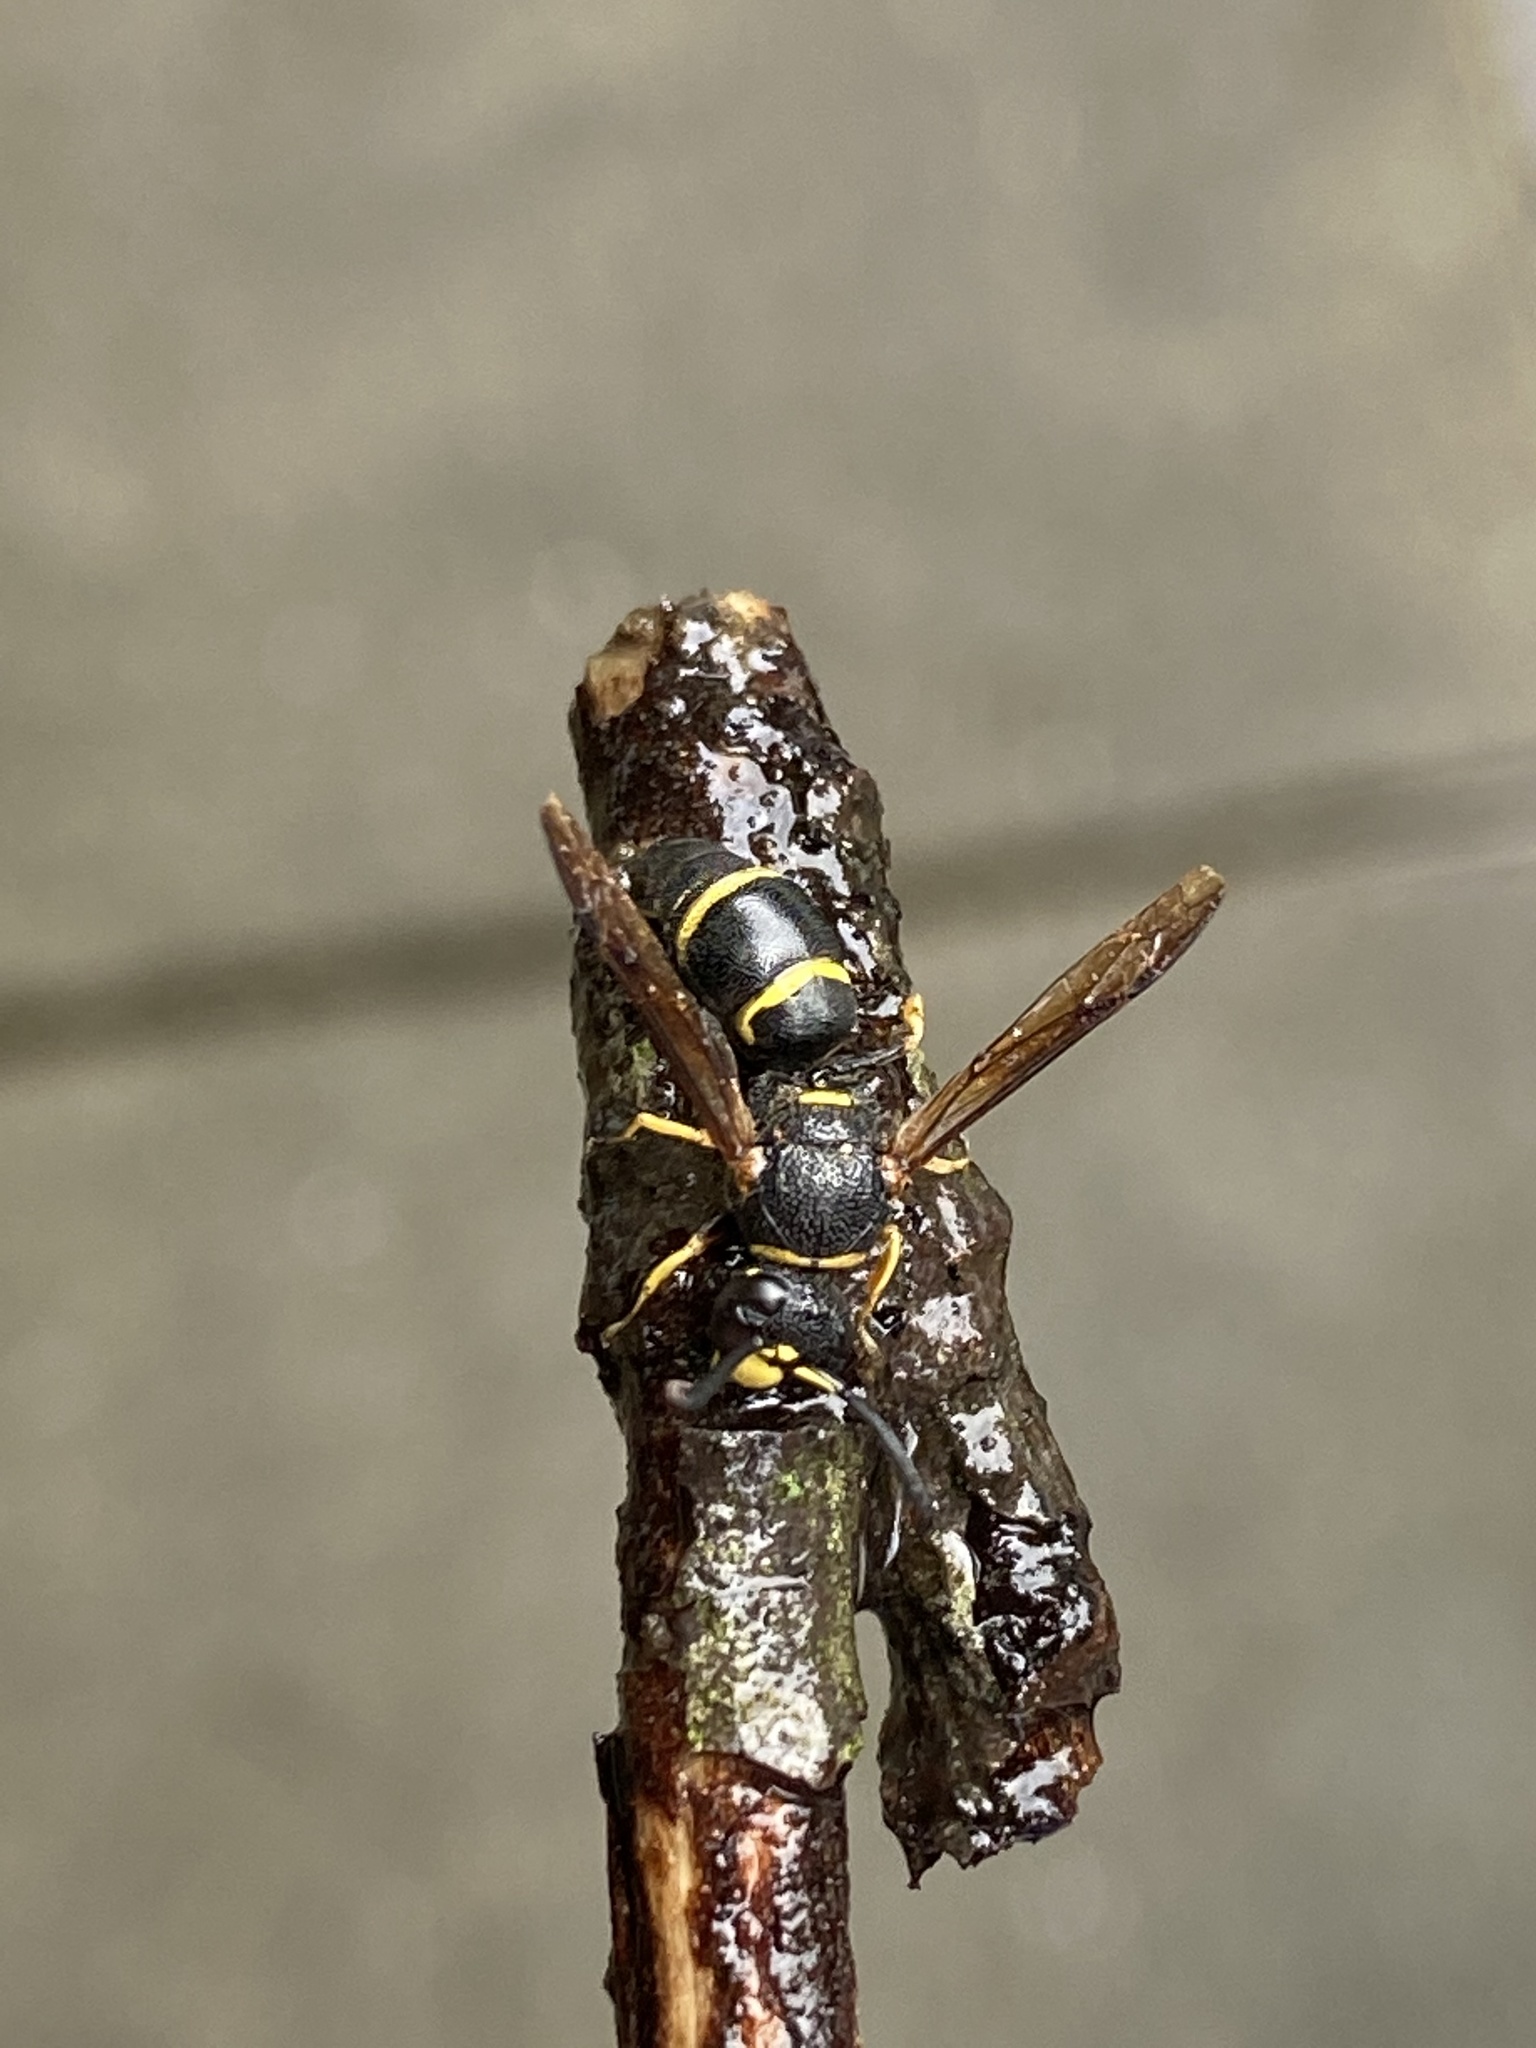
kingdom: Animalia
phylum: Arthropoda
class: Insecta
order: Hymenoptera
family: Eumenidae
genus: Euodynerus
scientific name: Euodynerus
